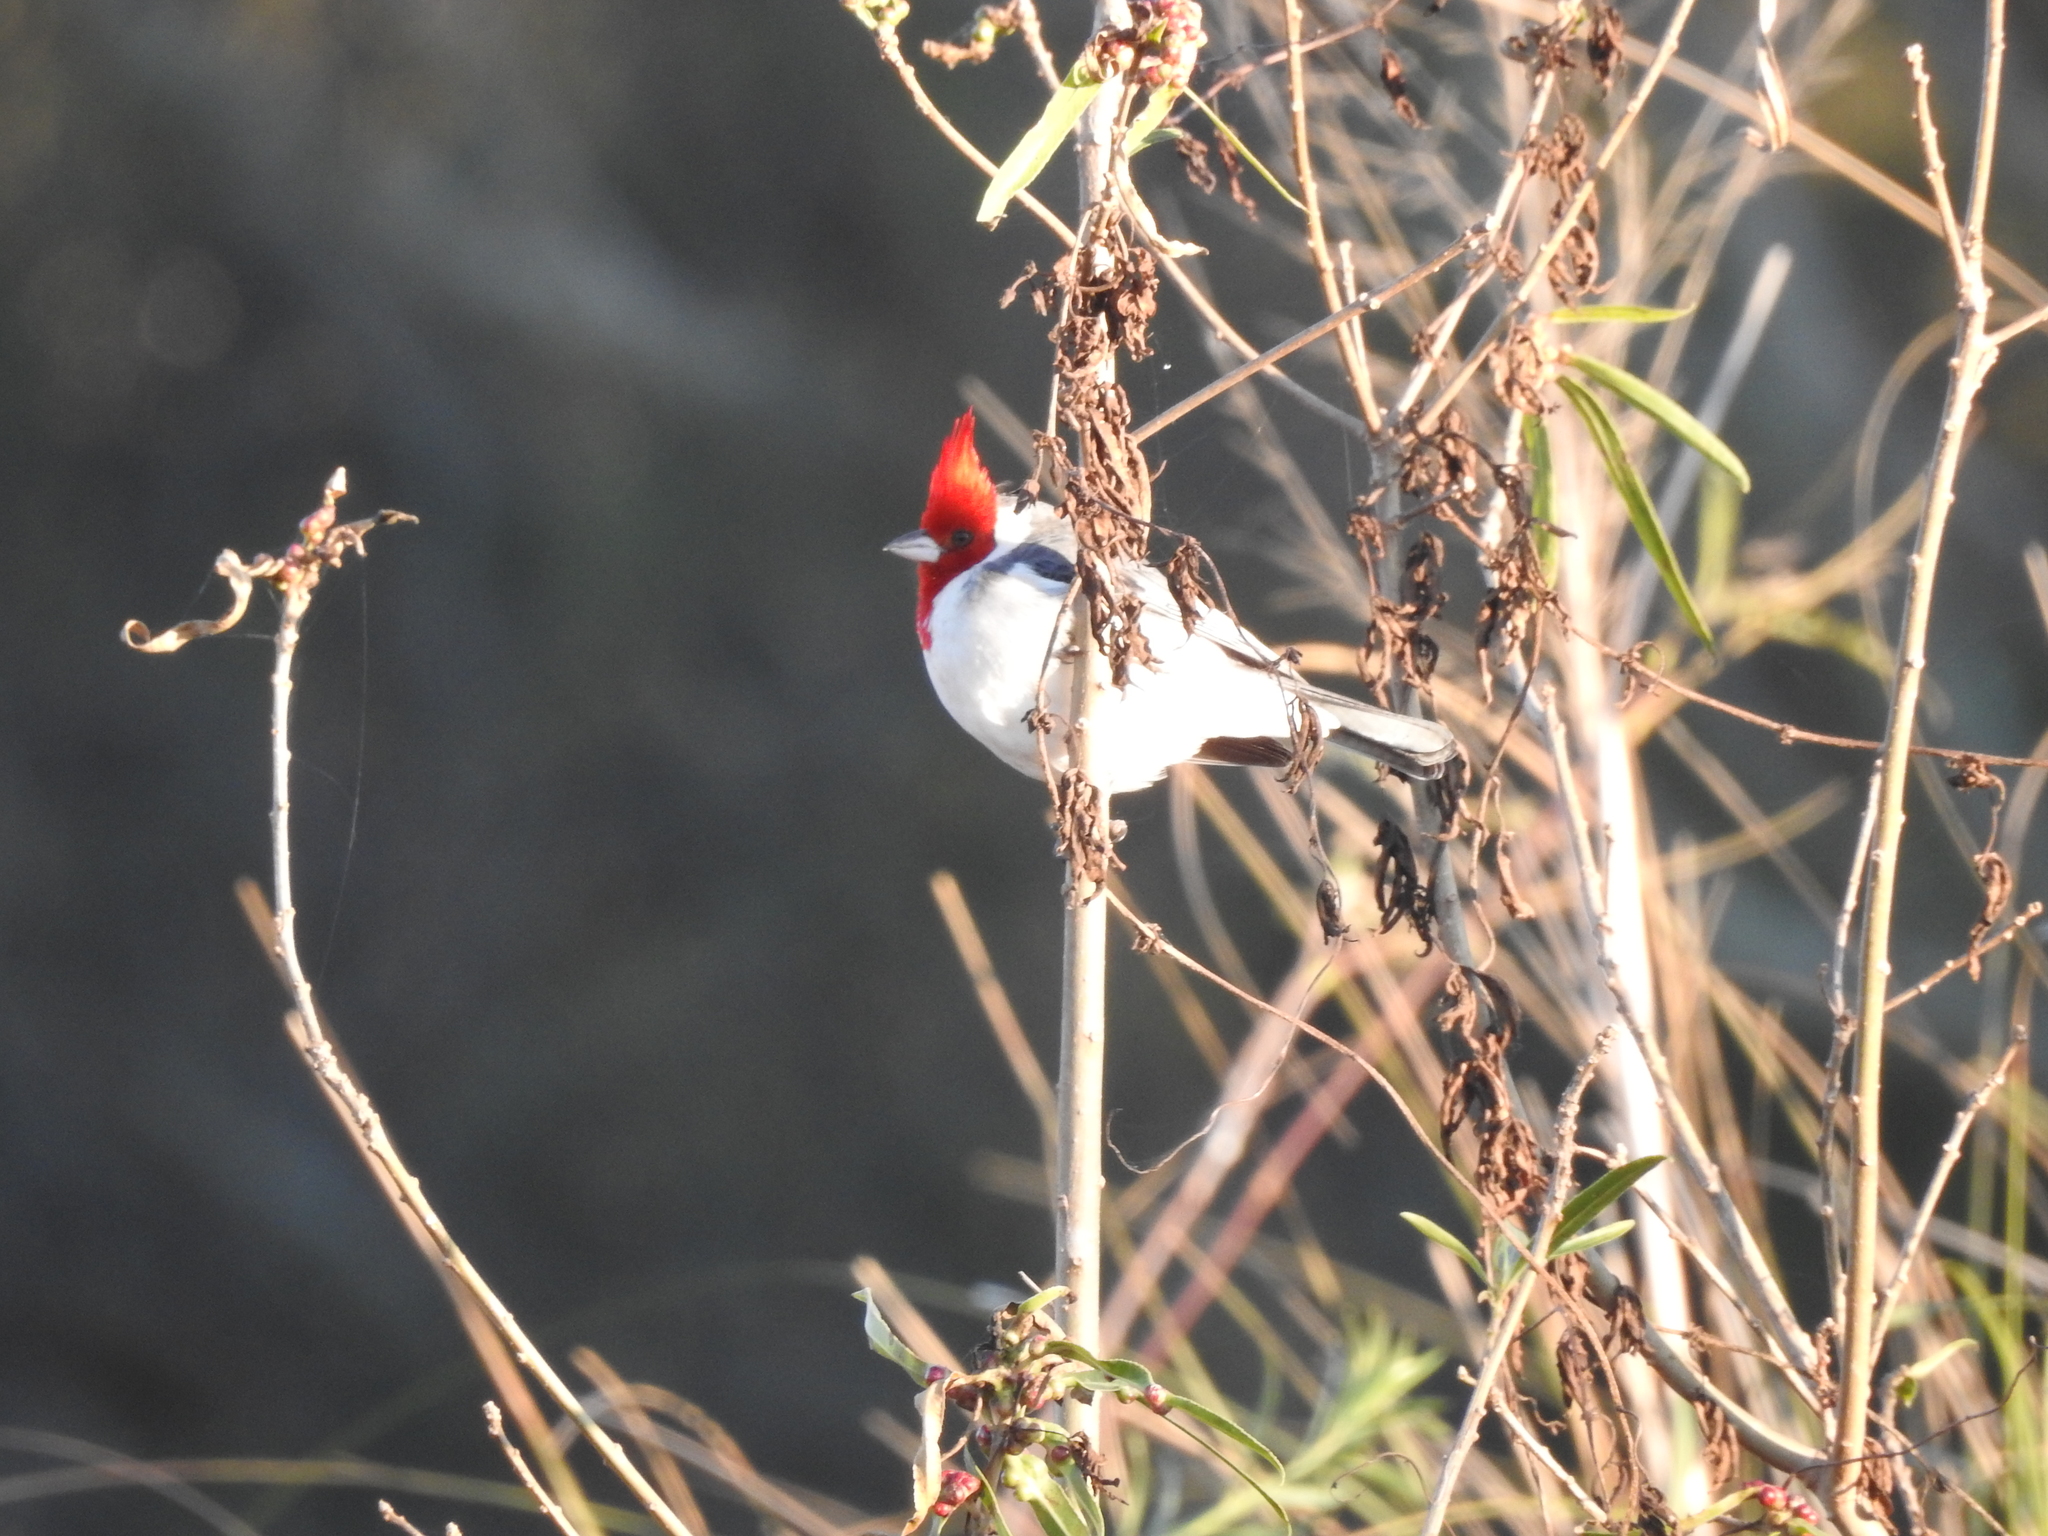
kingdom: Animalia
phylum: Chordata
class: Aves
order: Passeriformes
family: Thraupidae
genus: Paroaria
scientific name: Paroaria coronata
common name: Red-crested cardinal
